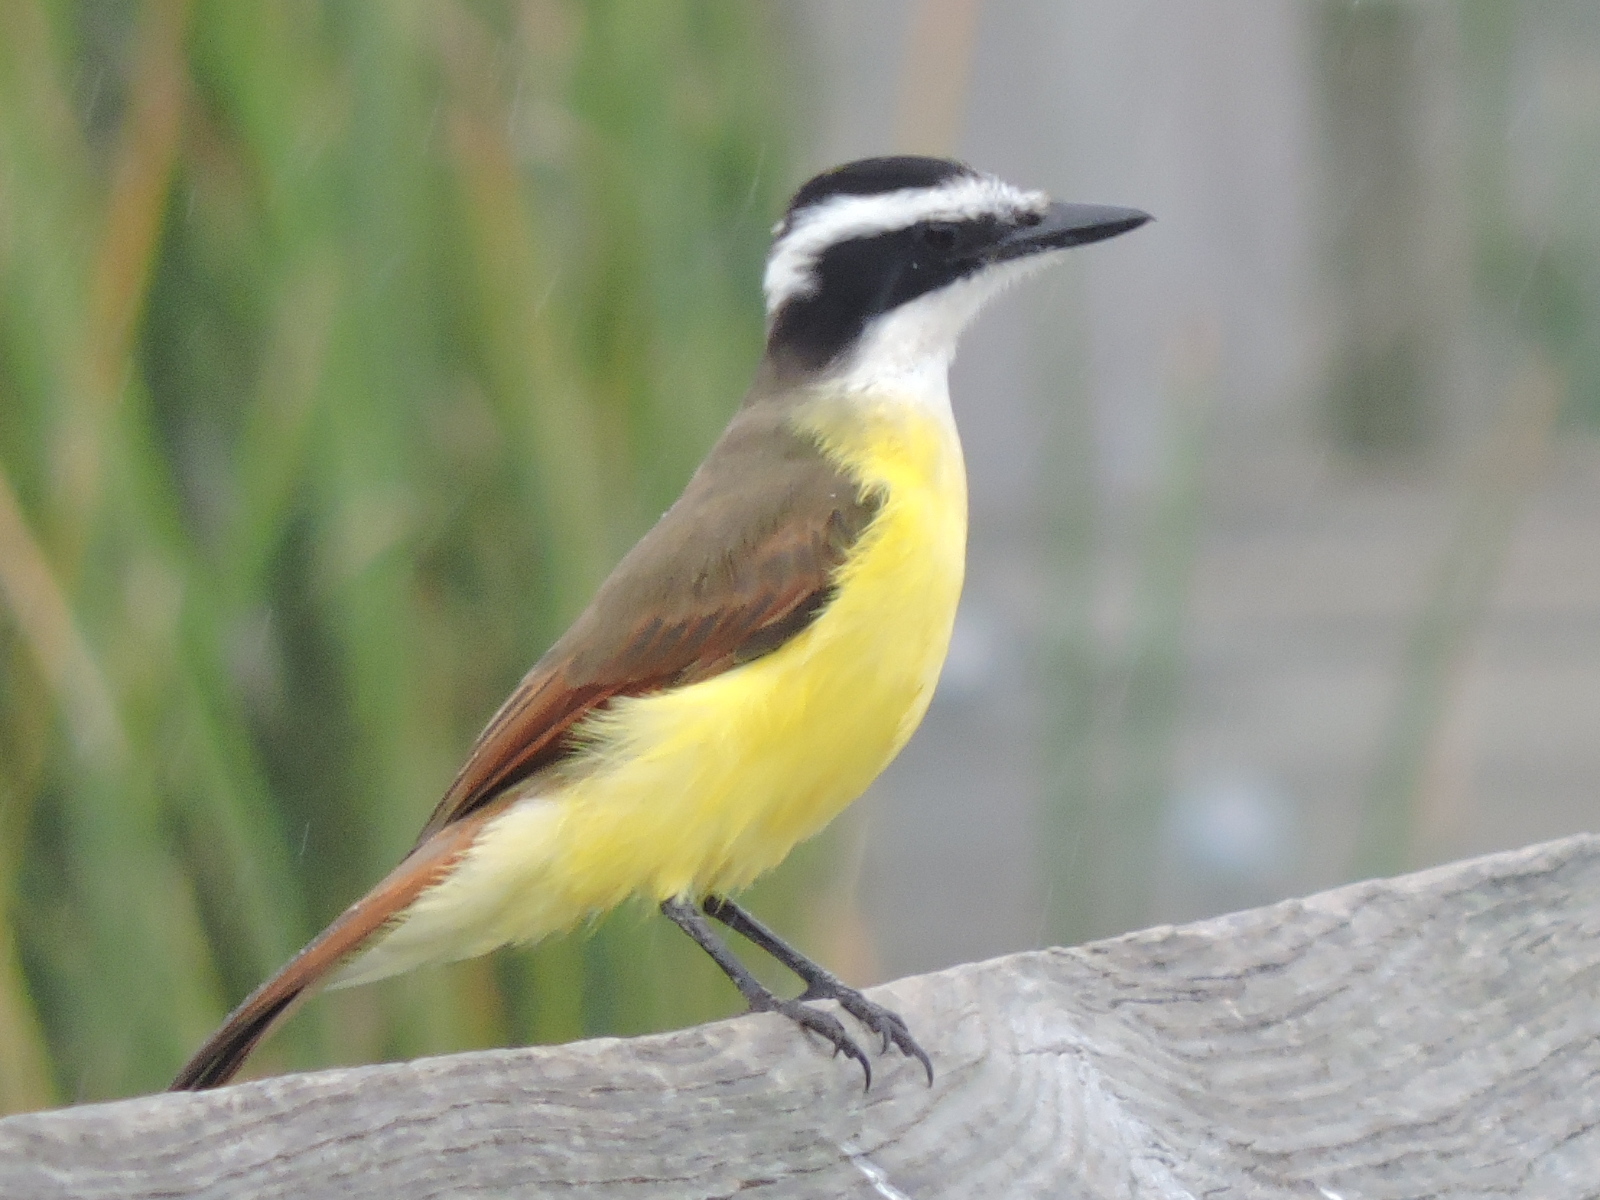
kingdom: Animalia
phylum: Chordata
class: Aves
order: Passeriformes
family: Tyrannidae
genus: Pitangus
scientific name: Pitangus sulphuratus
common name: Great kiskadee
